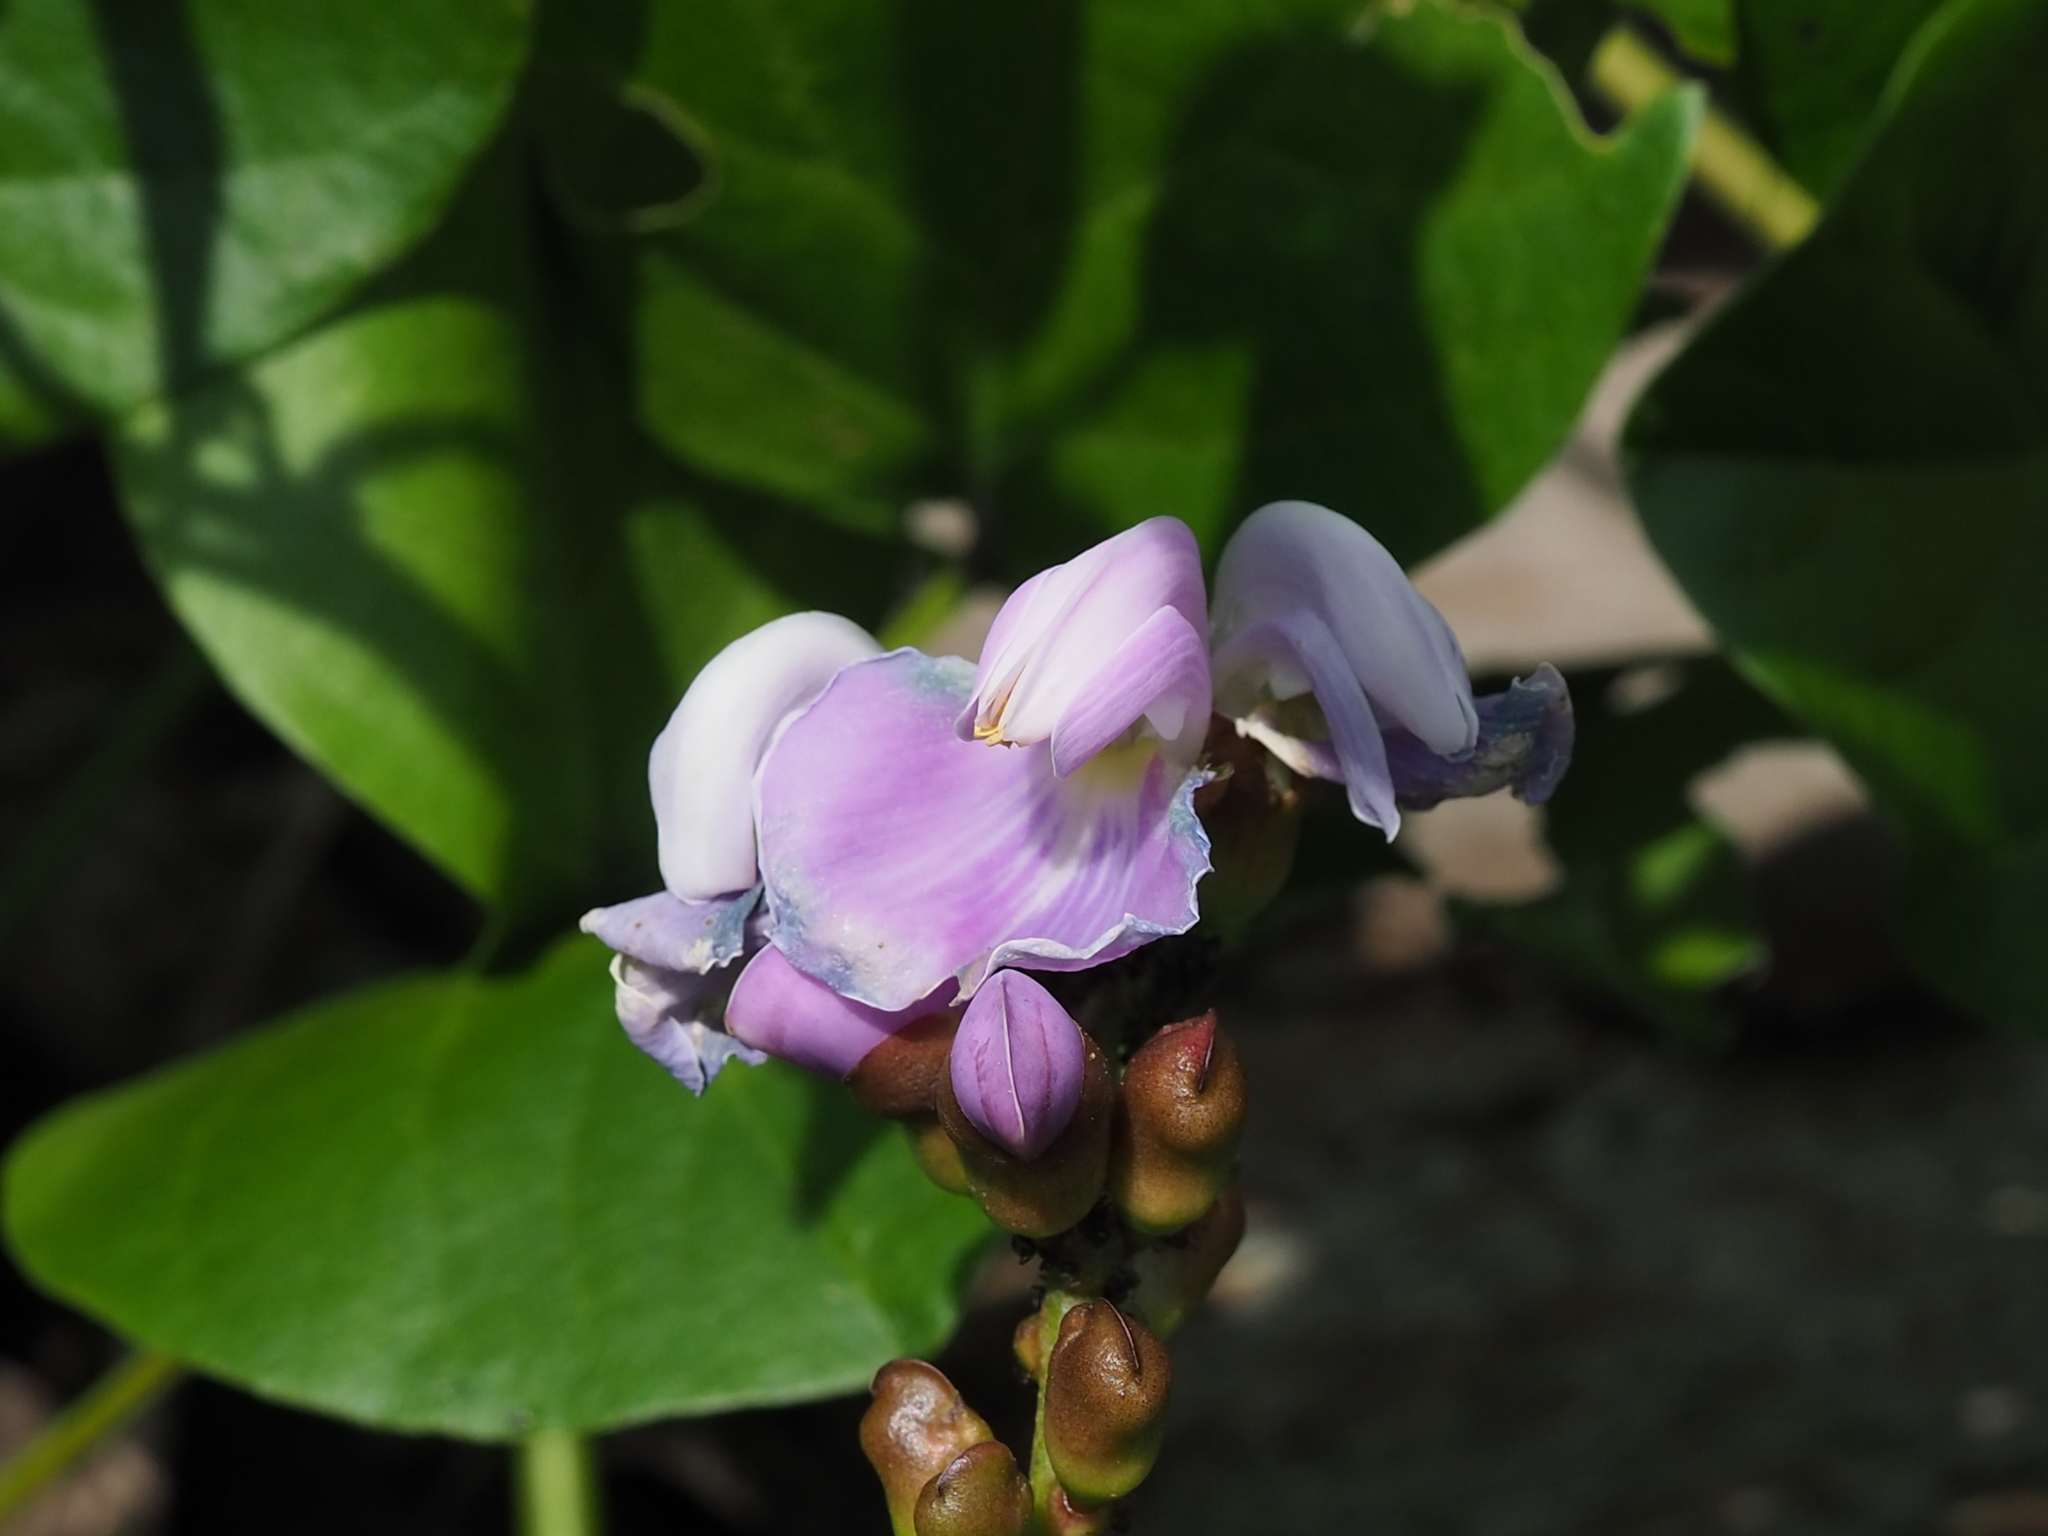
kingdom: Plantae
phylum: Tracheophyta
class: Magnoliopsida
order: Fabales
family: Fabaceae
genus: Canavalia
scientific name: Canavalia lineata
